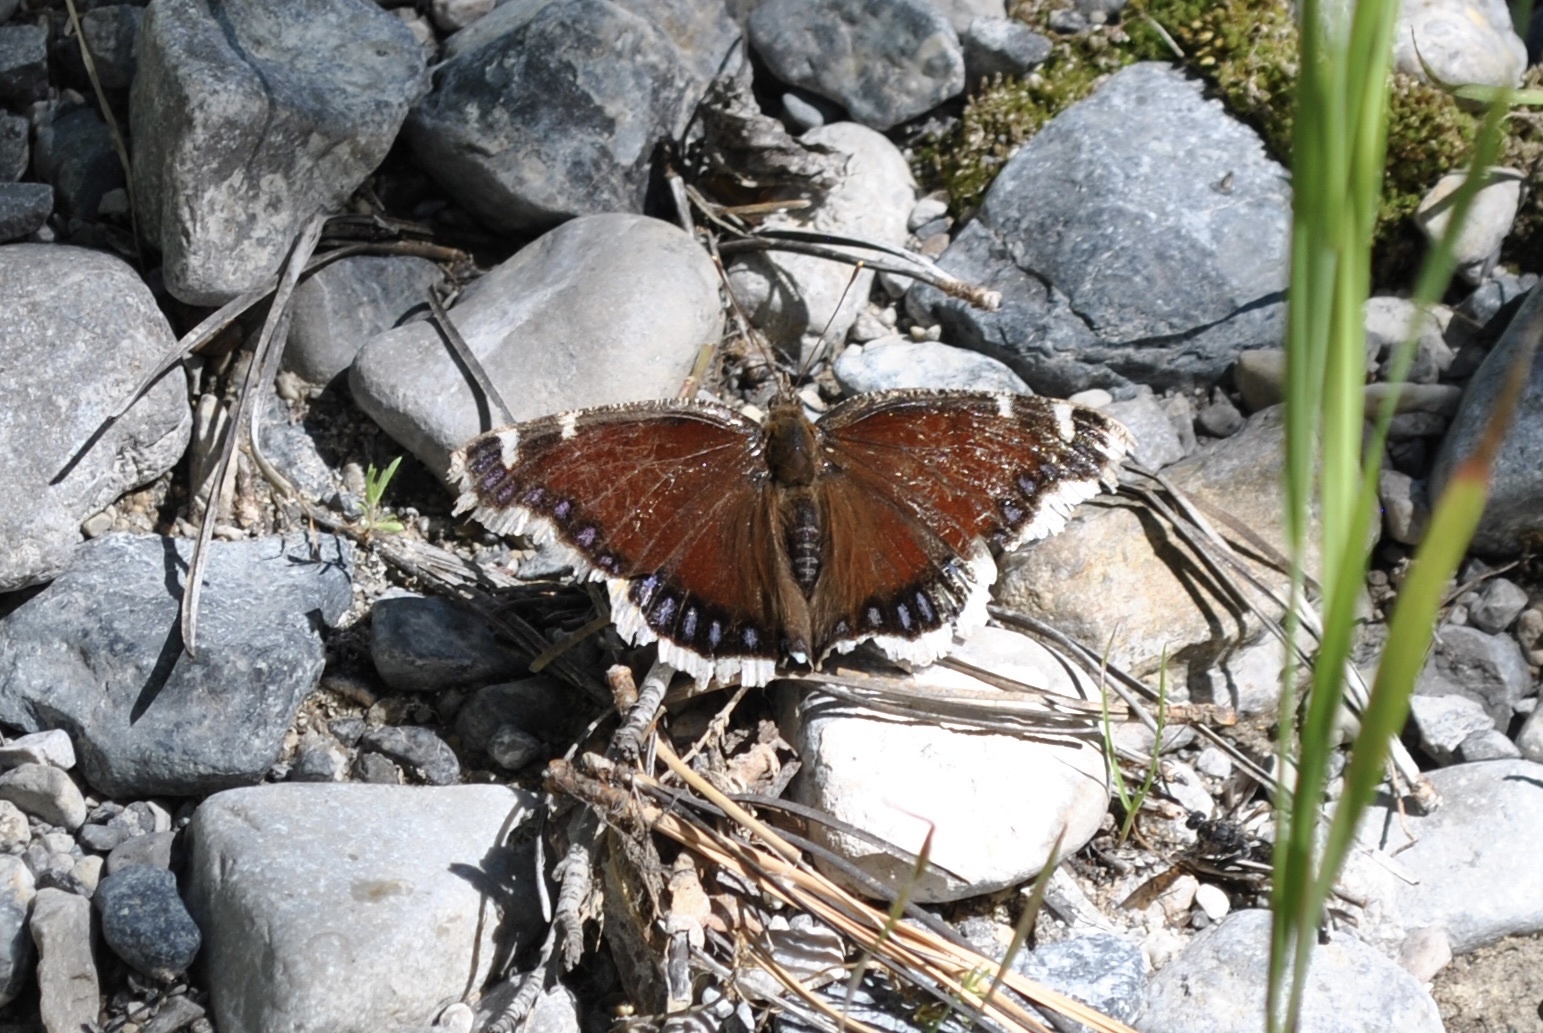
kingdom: Animalia
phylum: Arthropoda
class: Insecta
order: Lepidoptera
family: Nymphalidae
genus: Nymphalis
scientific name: Nymphalis antiopa
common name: Camberwell beauty
